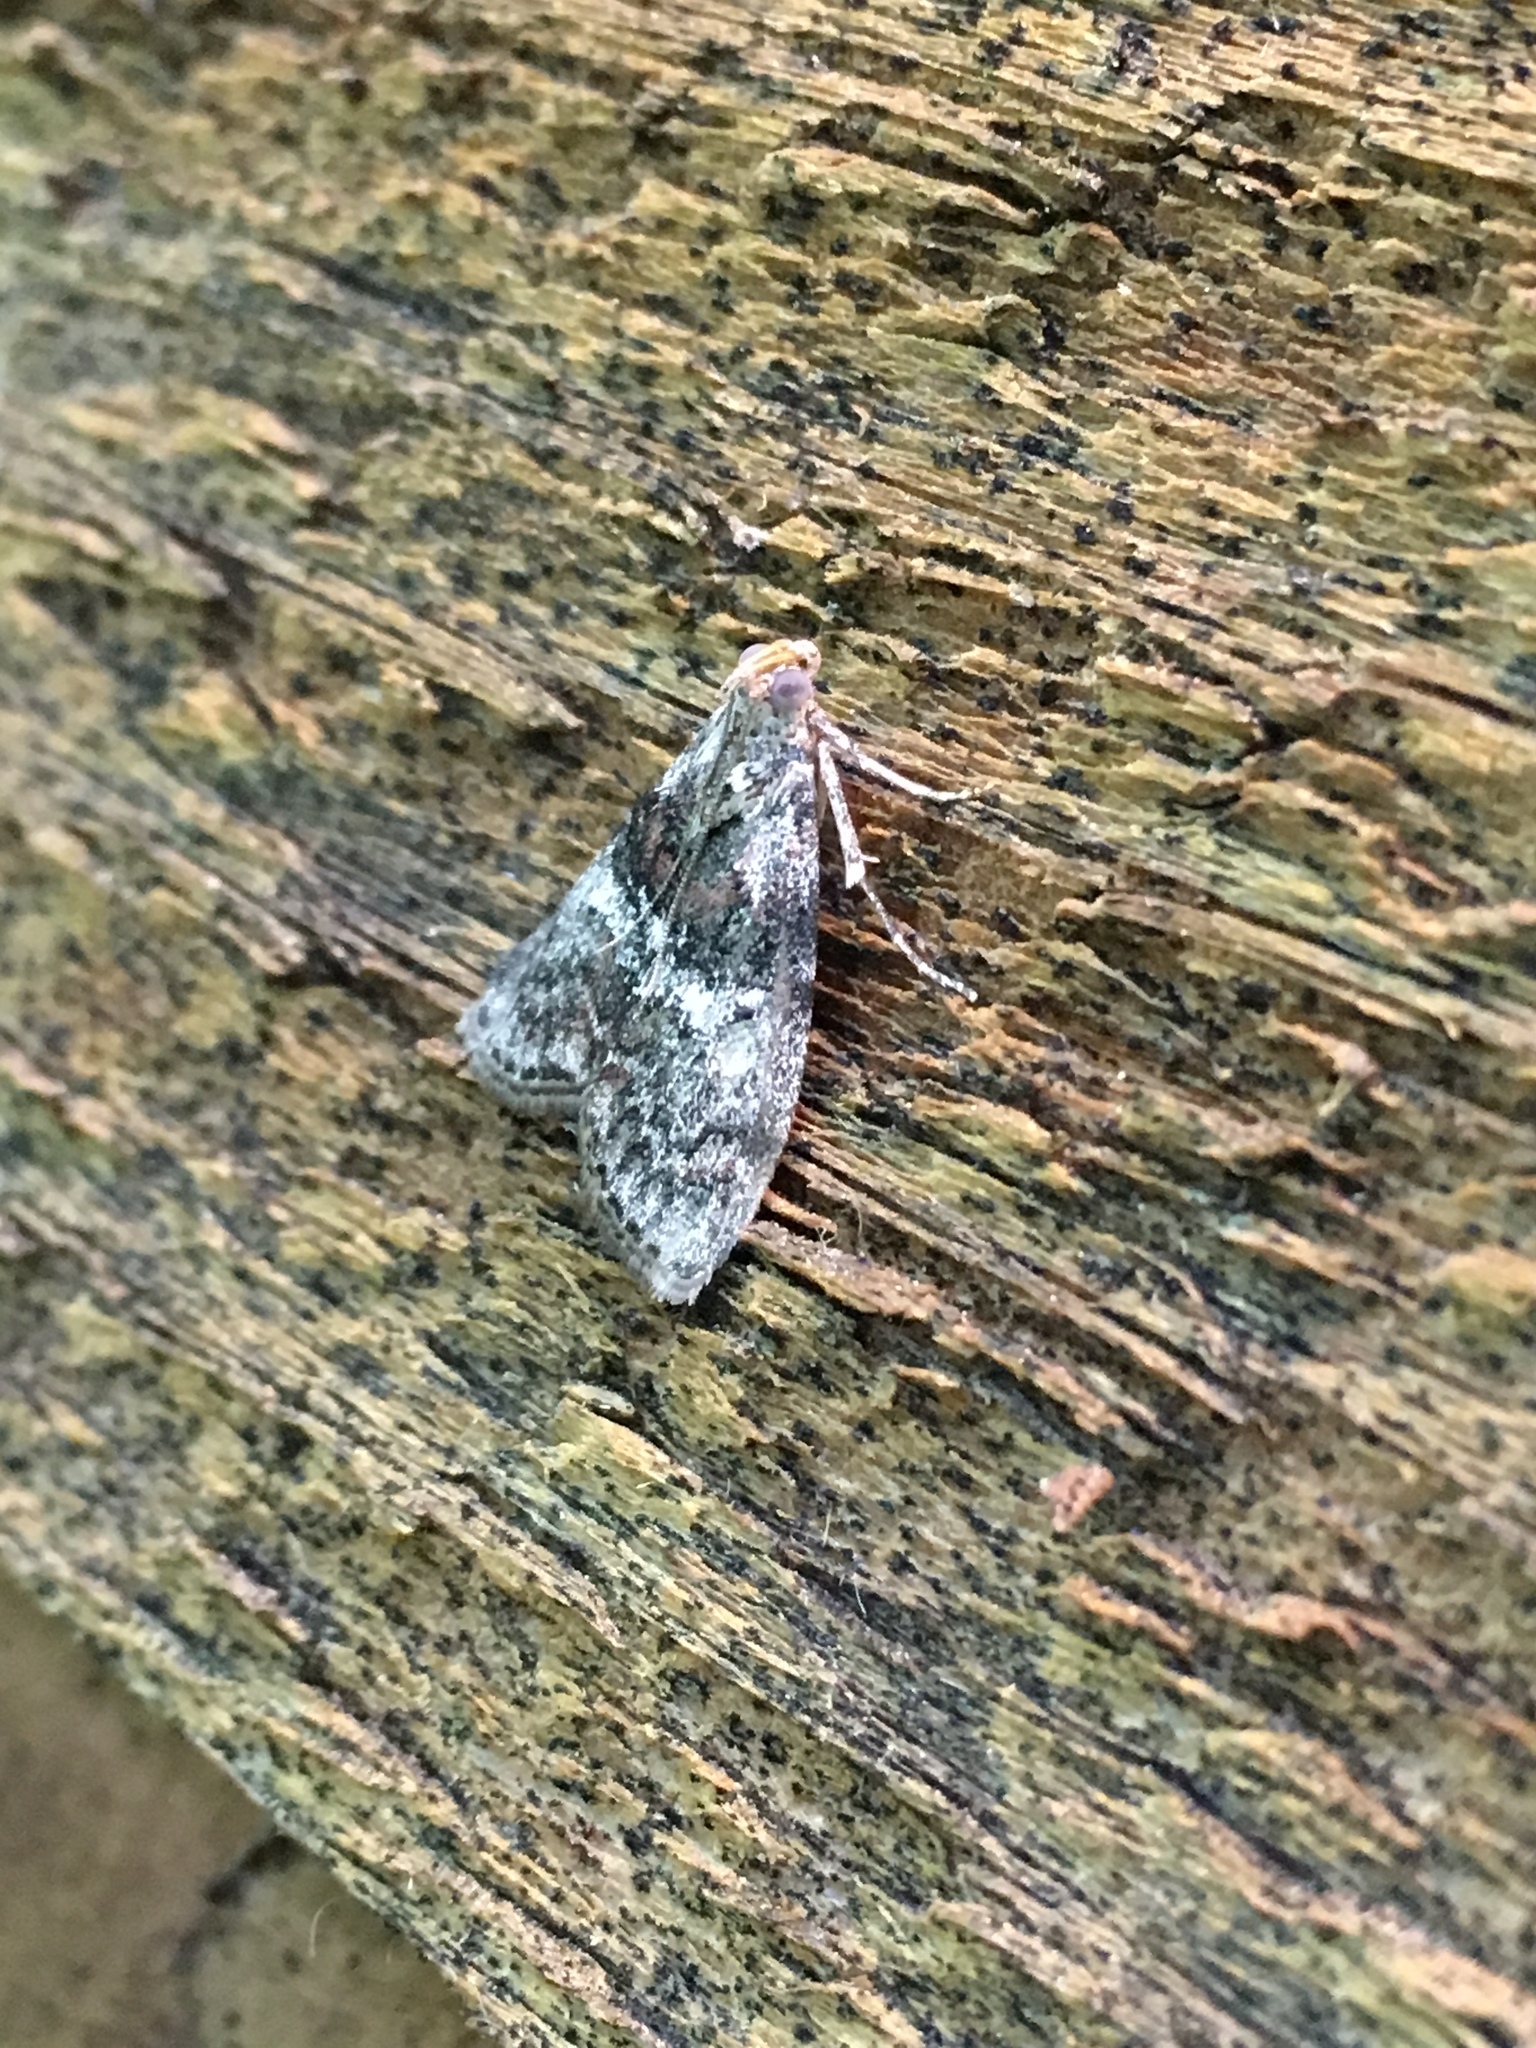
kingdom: Animalia
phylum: Arthropoda
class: Insecta
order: Lepidoptera
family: Pyralidae
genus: Pococera
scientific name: Pococera asperatella
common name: Maple webworm moth
